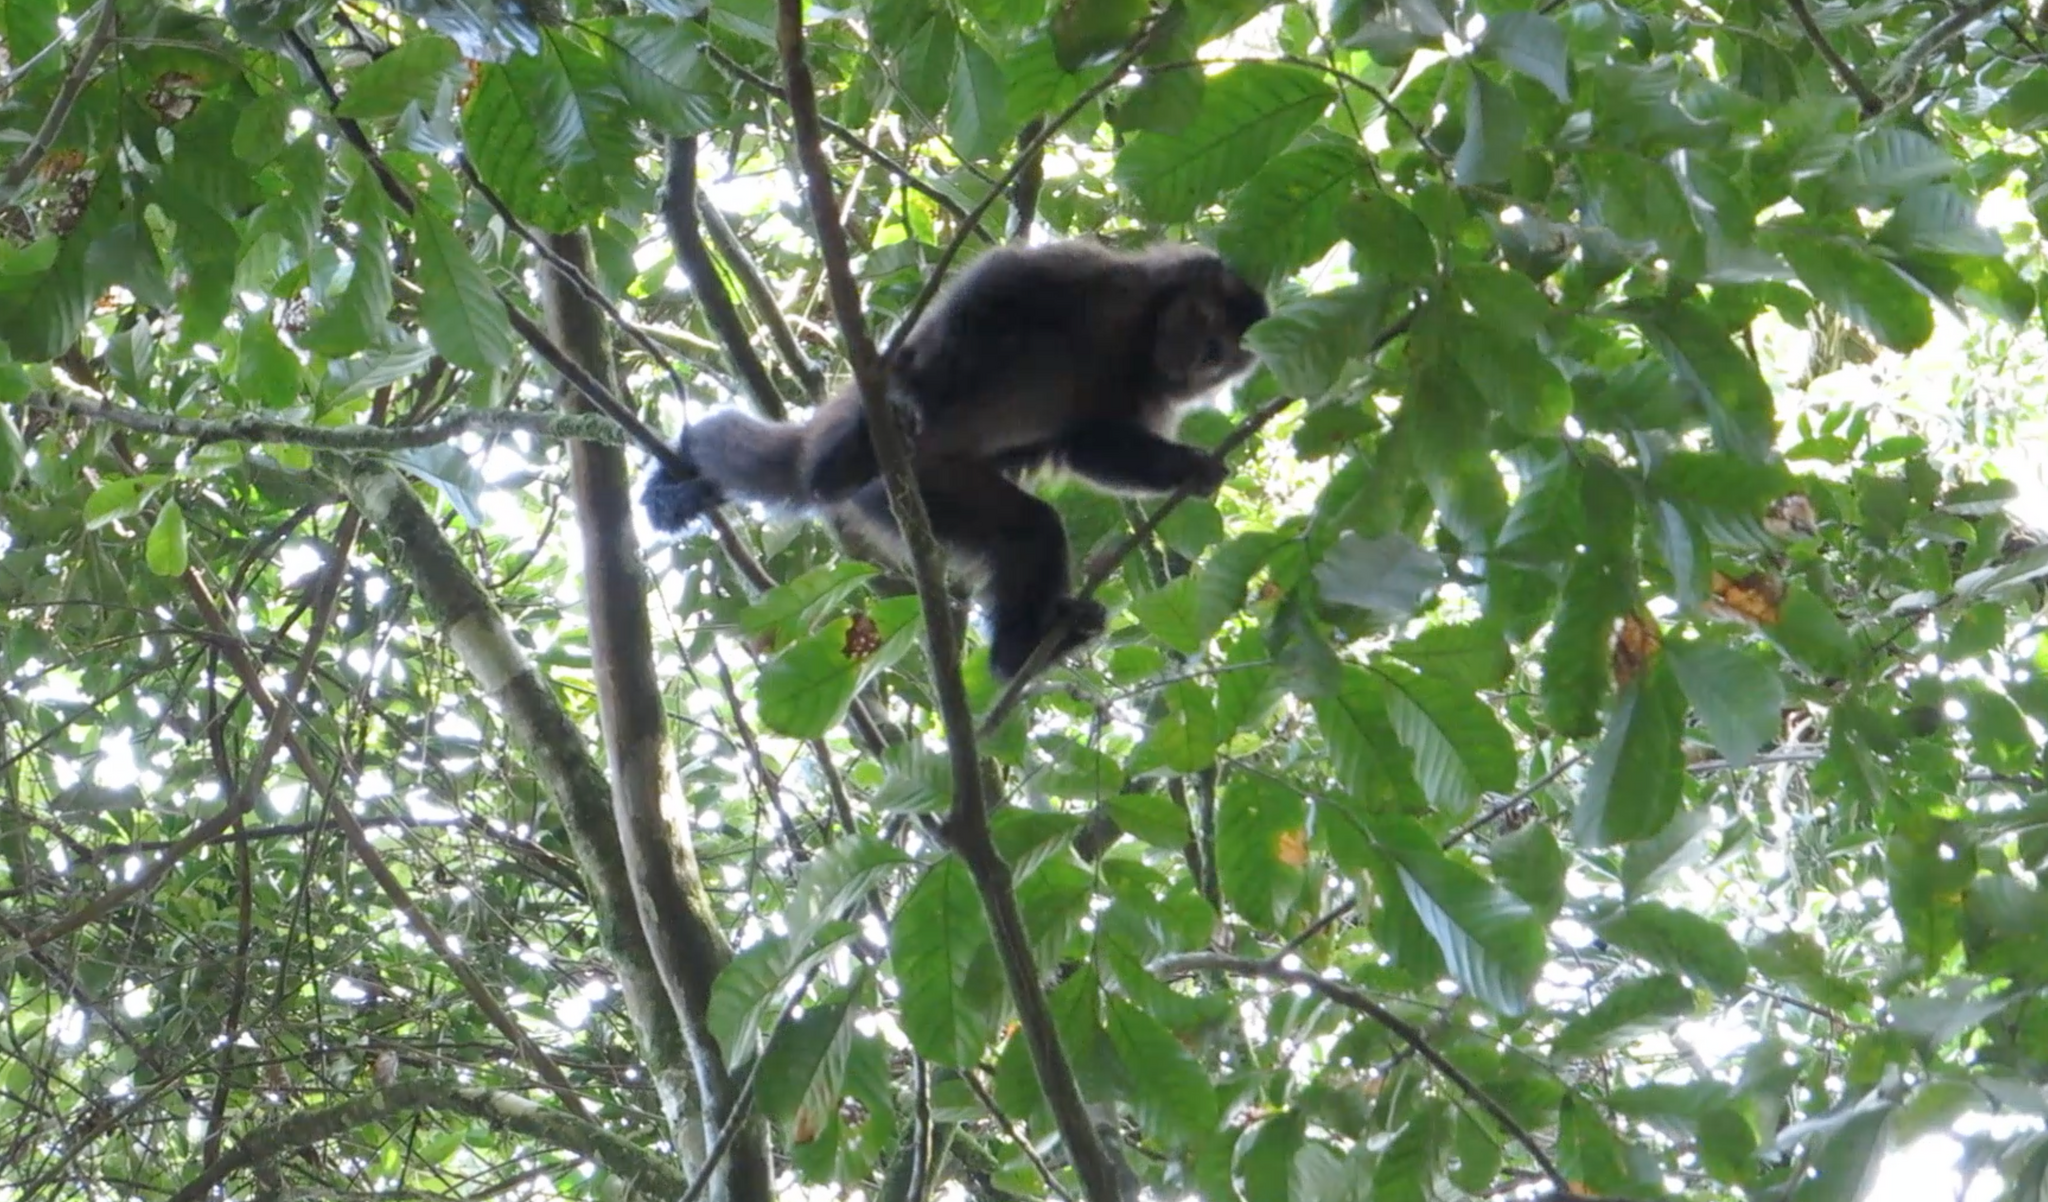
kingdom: Animalia
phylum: Chordata
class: Mammalia
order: Primates
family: Cebidae
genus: Sapajus
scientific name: Sapajus nigritus
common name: Black capuchin
